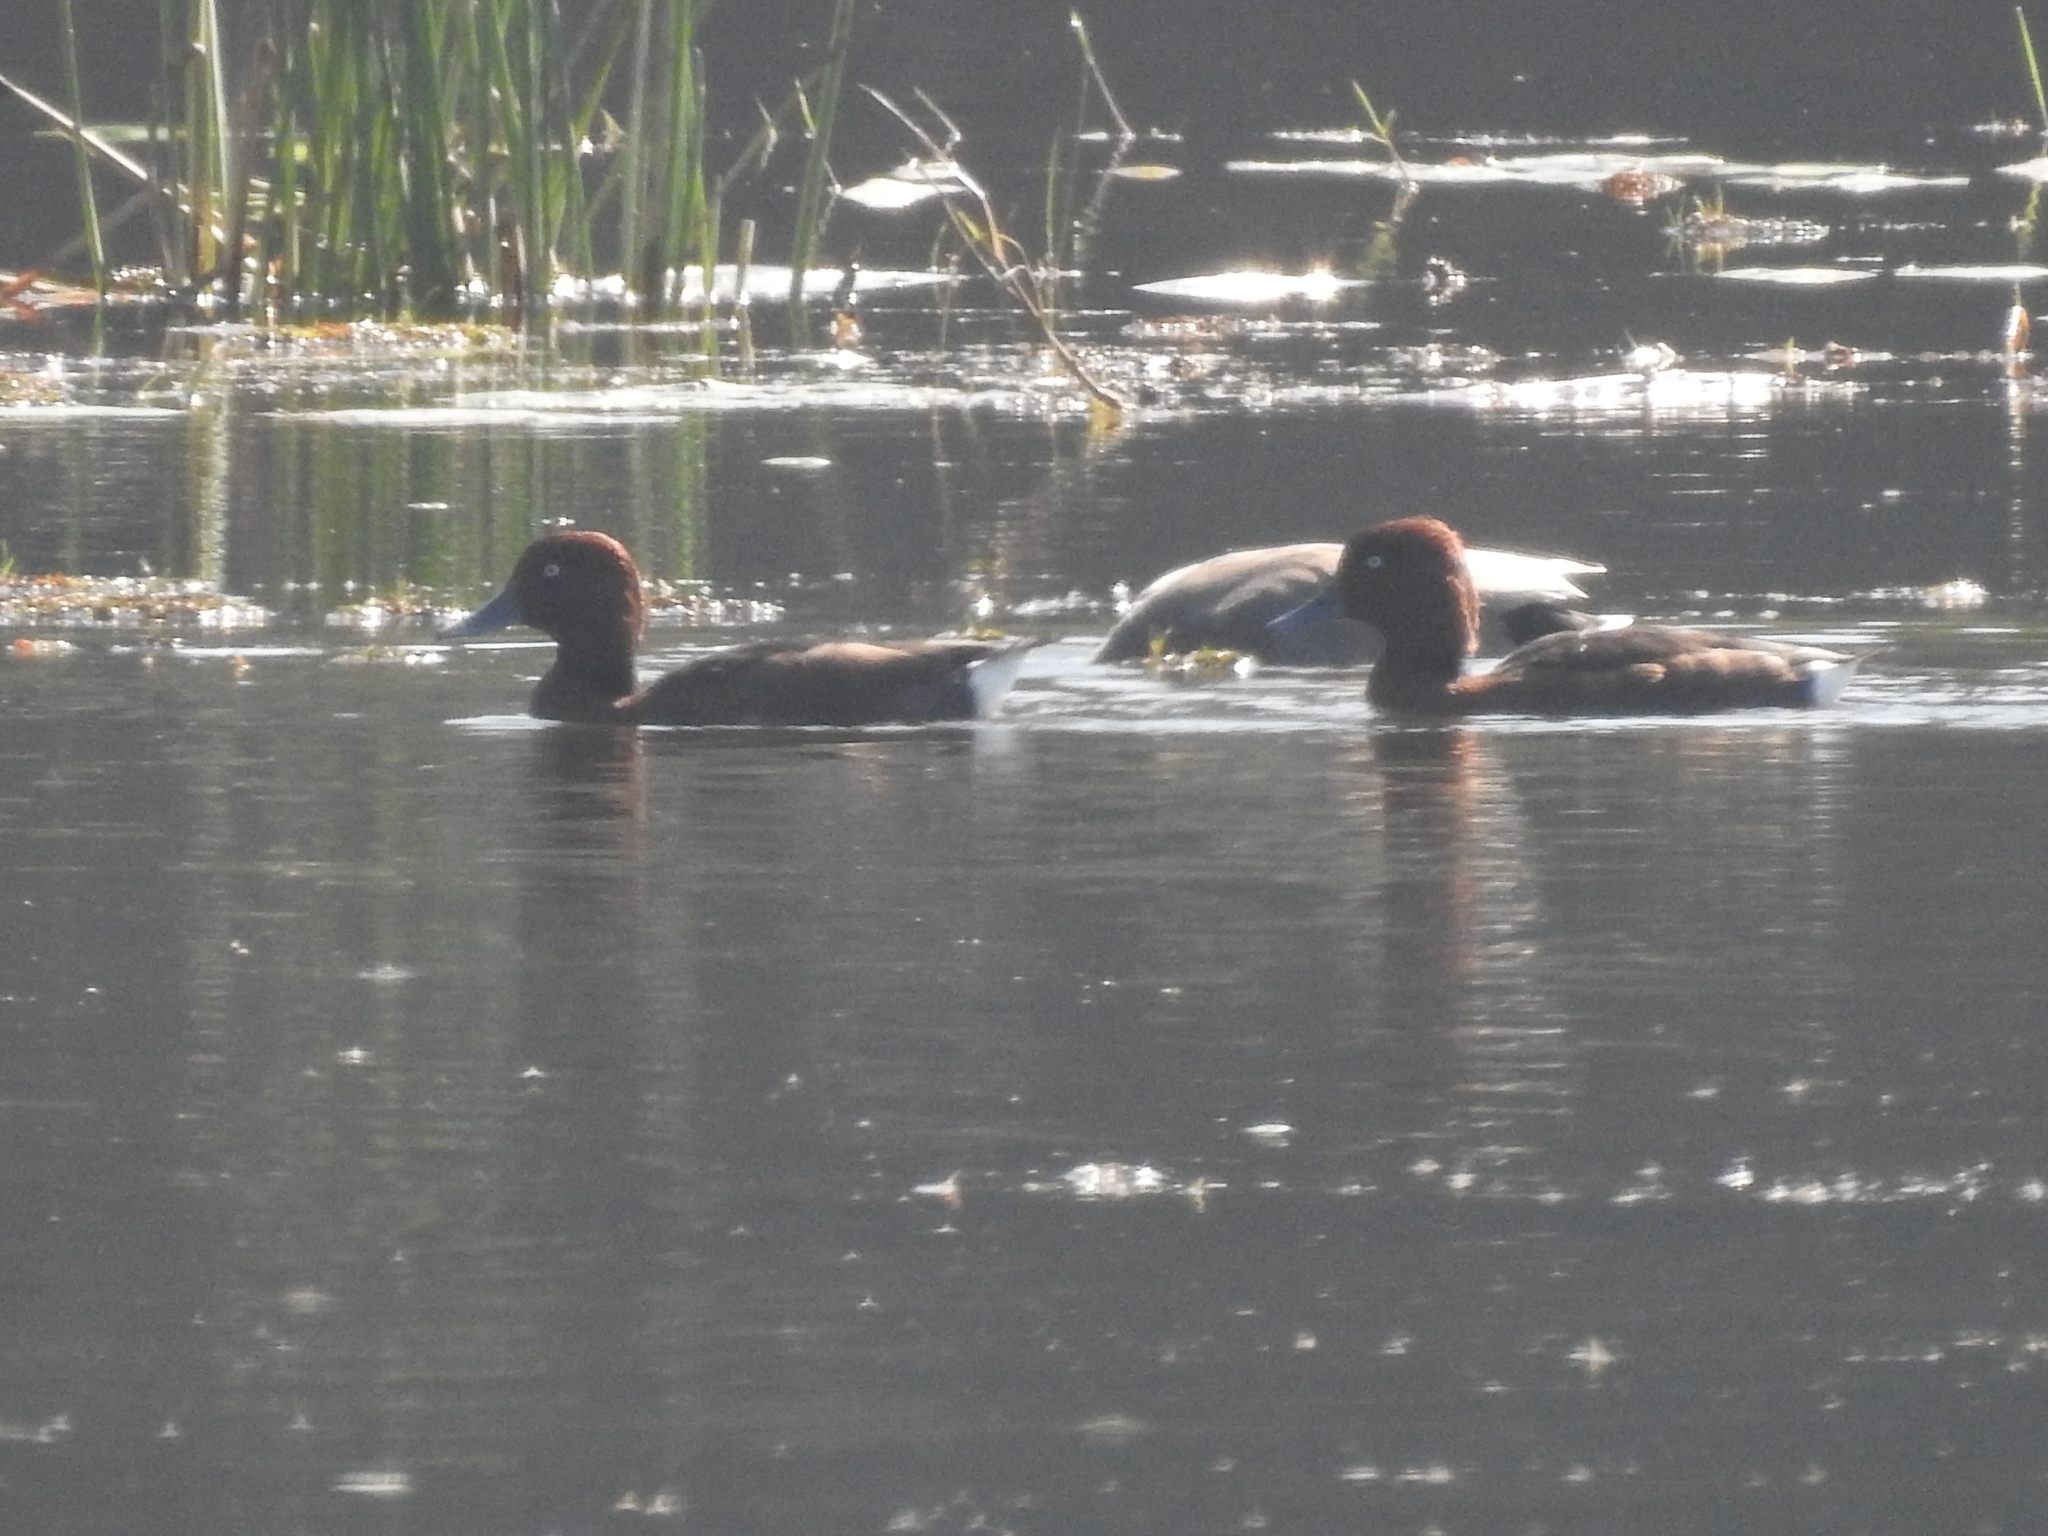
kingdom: Animalia
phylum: Chordata
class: Aves
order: Anseriformes
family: Anatidae
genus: Aythya
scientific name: Aythya nyroca
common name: Ferruginous duck
